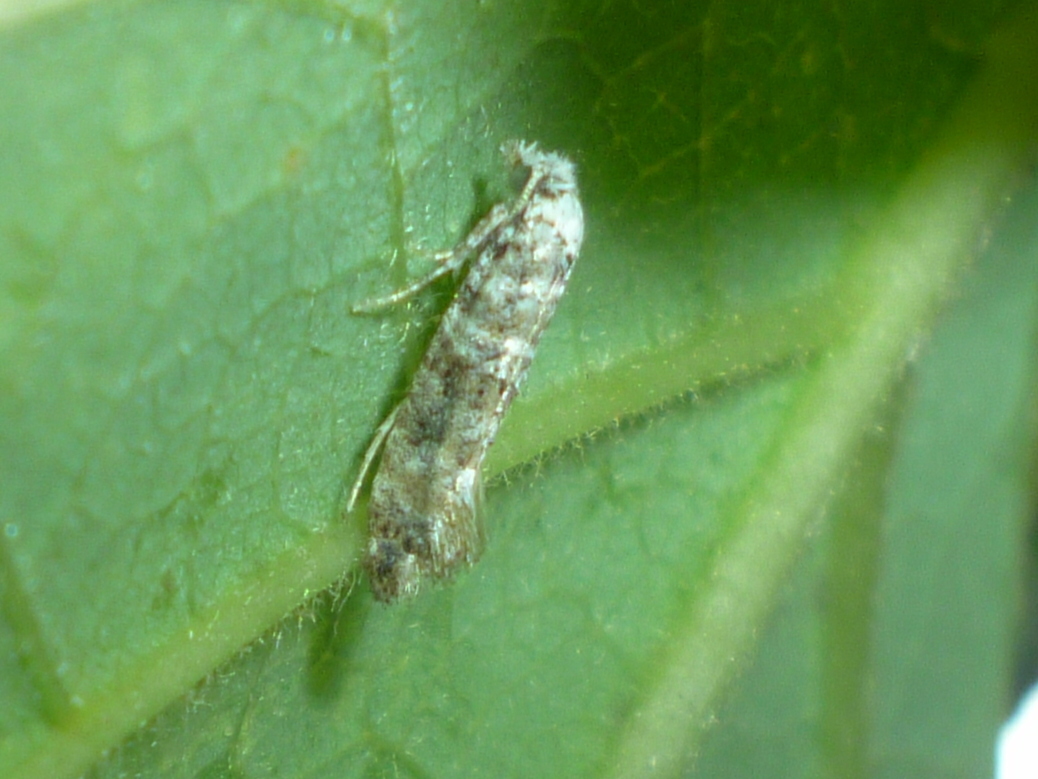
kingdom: Animalia
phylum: Arthropoda
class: Insecta
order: Lepidoptera
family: Tineidae
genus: Xylesthia
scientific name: Xylesthia pruniramiella
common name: Clemens' bark moth
